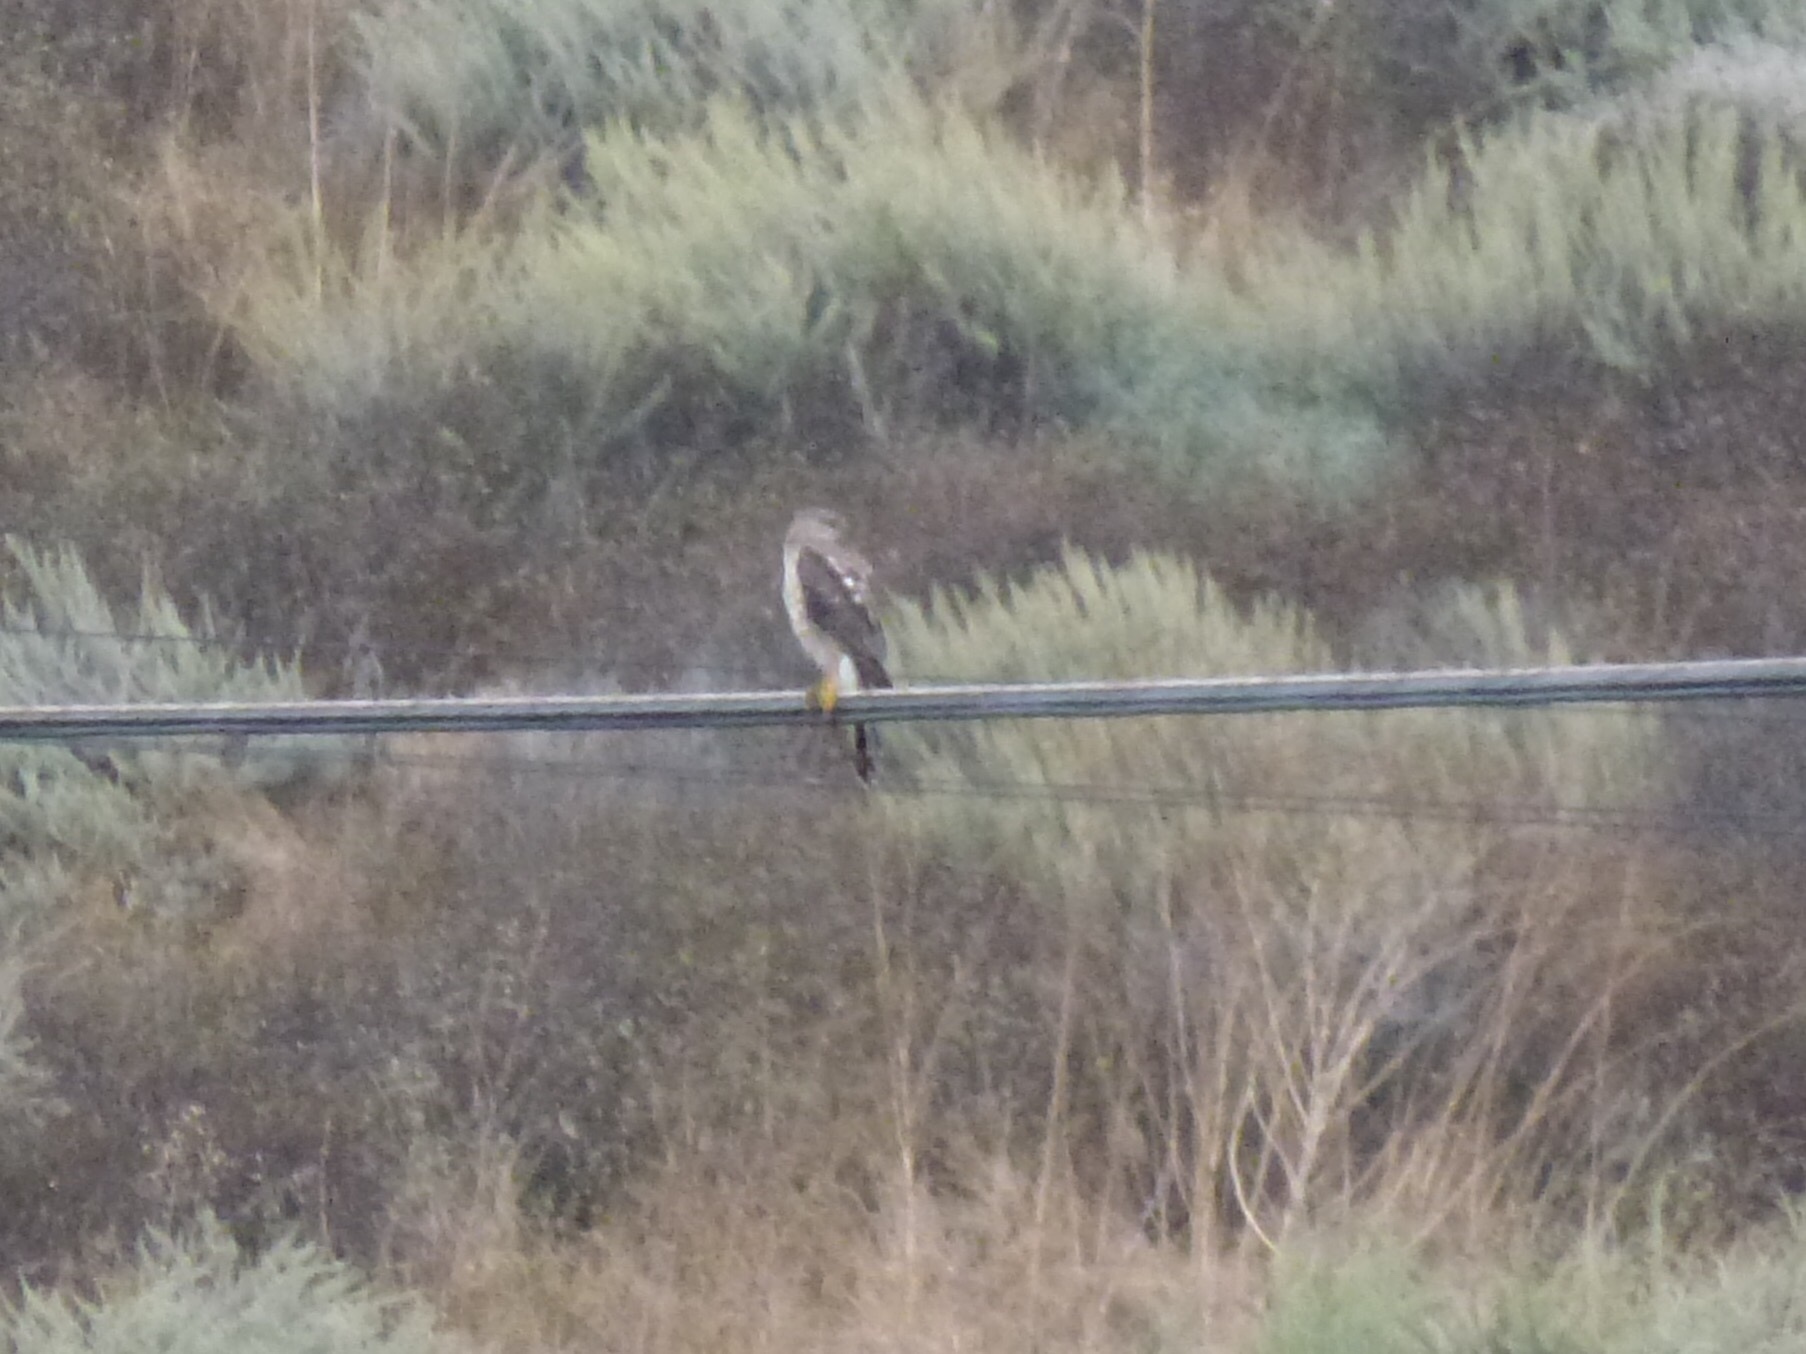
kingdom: Animalia
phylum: Chordata
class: Aves
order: Accipitriformes
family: Accipitridae
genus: Accipiter
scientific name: Accipiter cooperii
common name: Cooper's hawk
